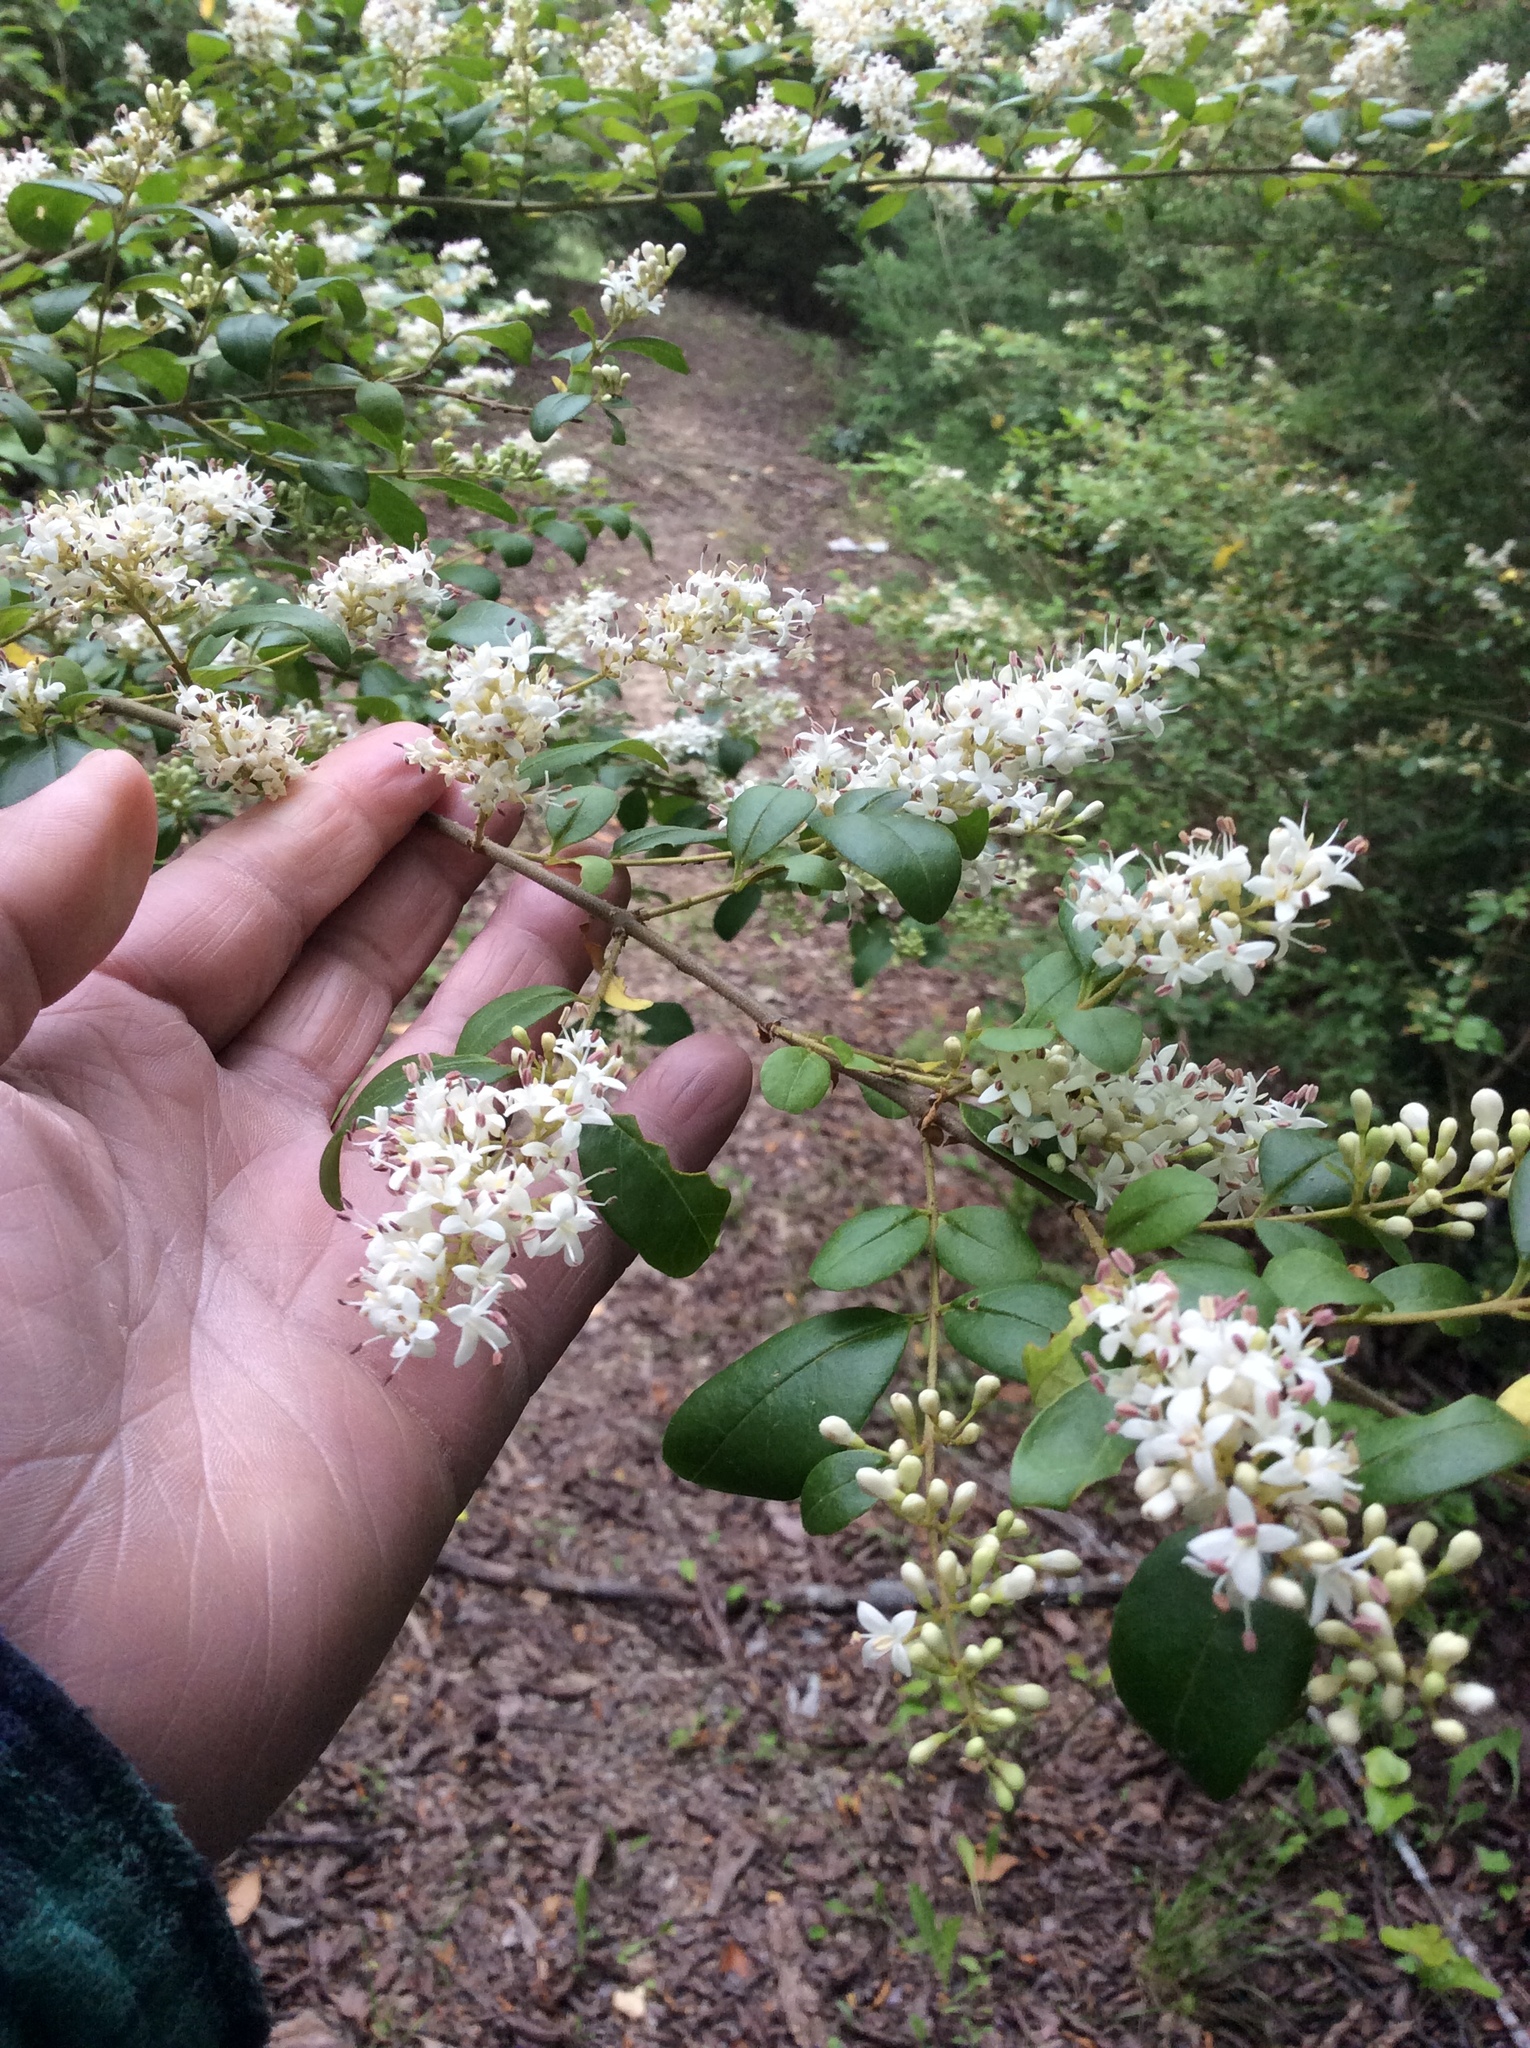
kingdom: Plantae
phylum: Tracheophyta
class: Magnoliopsida
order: Lamiales
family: Oleaceae
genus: Ligustrum
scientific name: Ligustrum sinense
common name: Chinese privet
